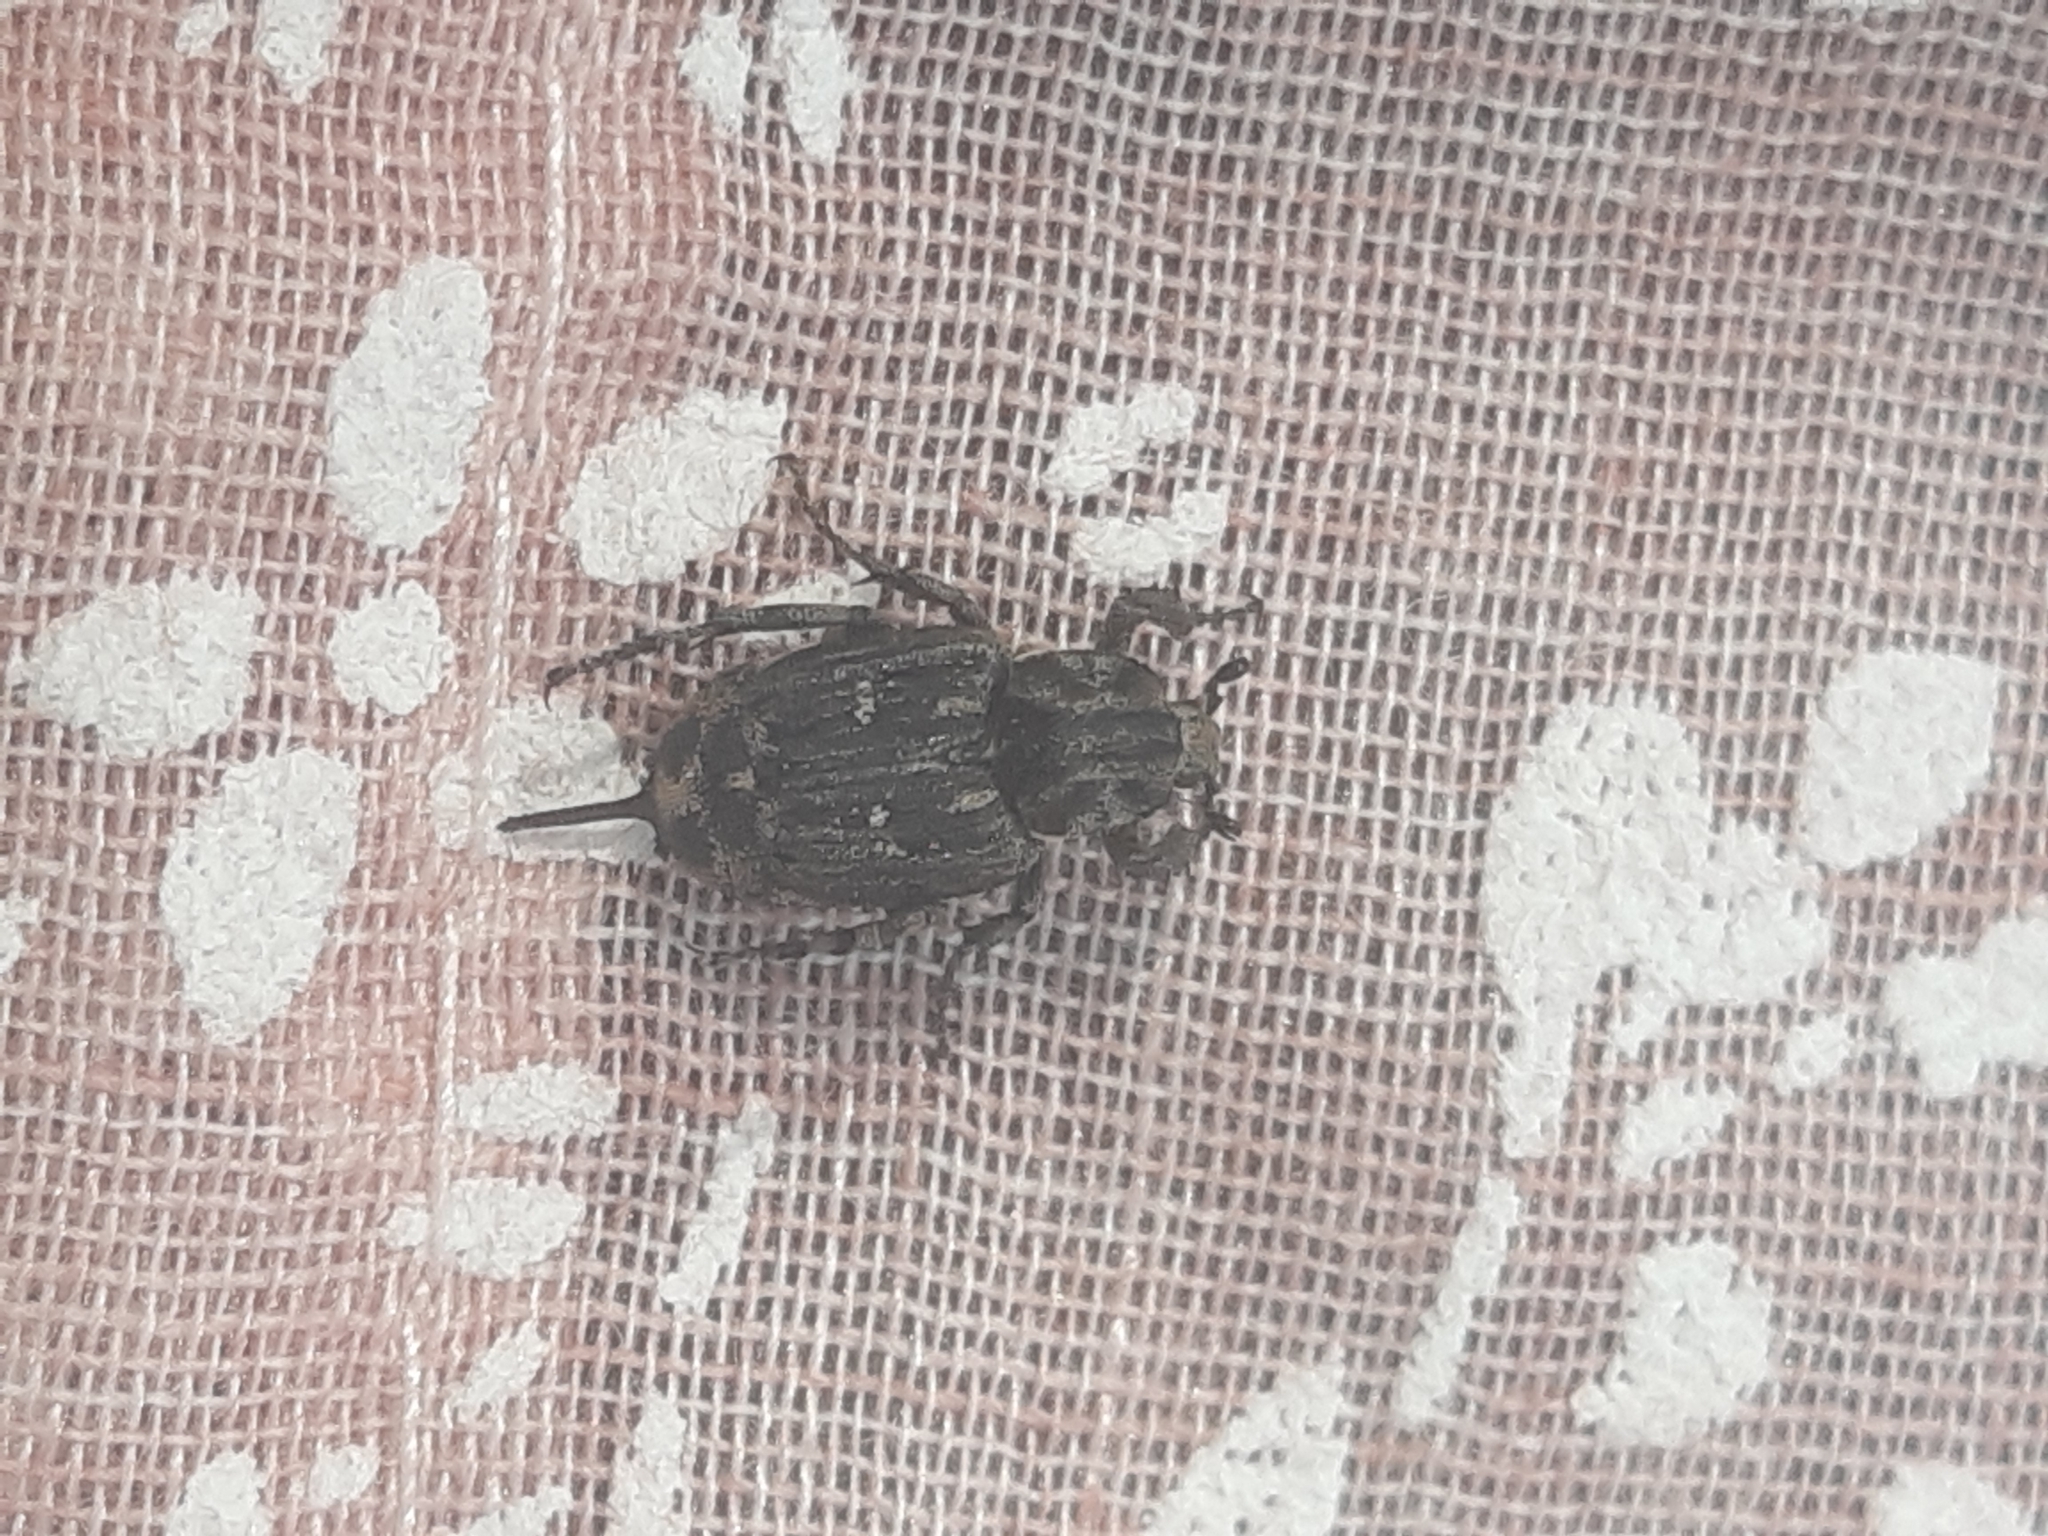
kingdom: Animalia
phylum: Arthropoda
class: Insecta
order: Coleoptera
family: Scarabaeidae
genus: Valgus
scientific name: Valgus hemipterus
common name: Bug flower chafer
